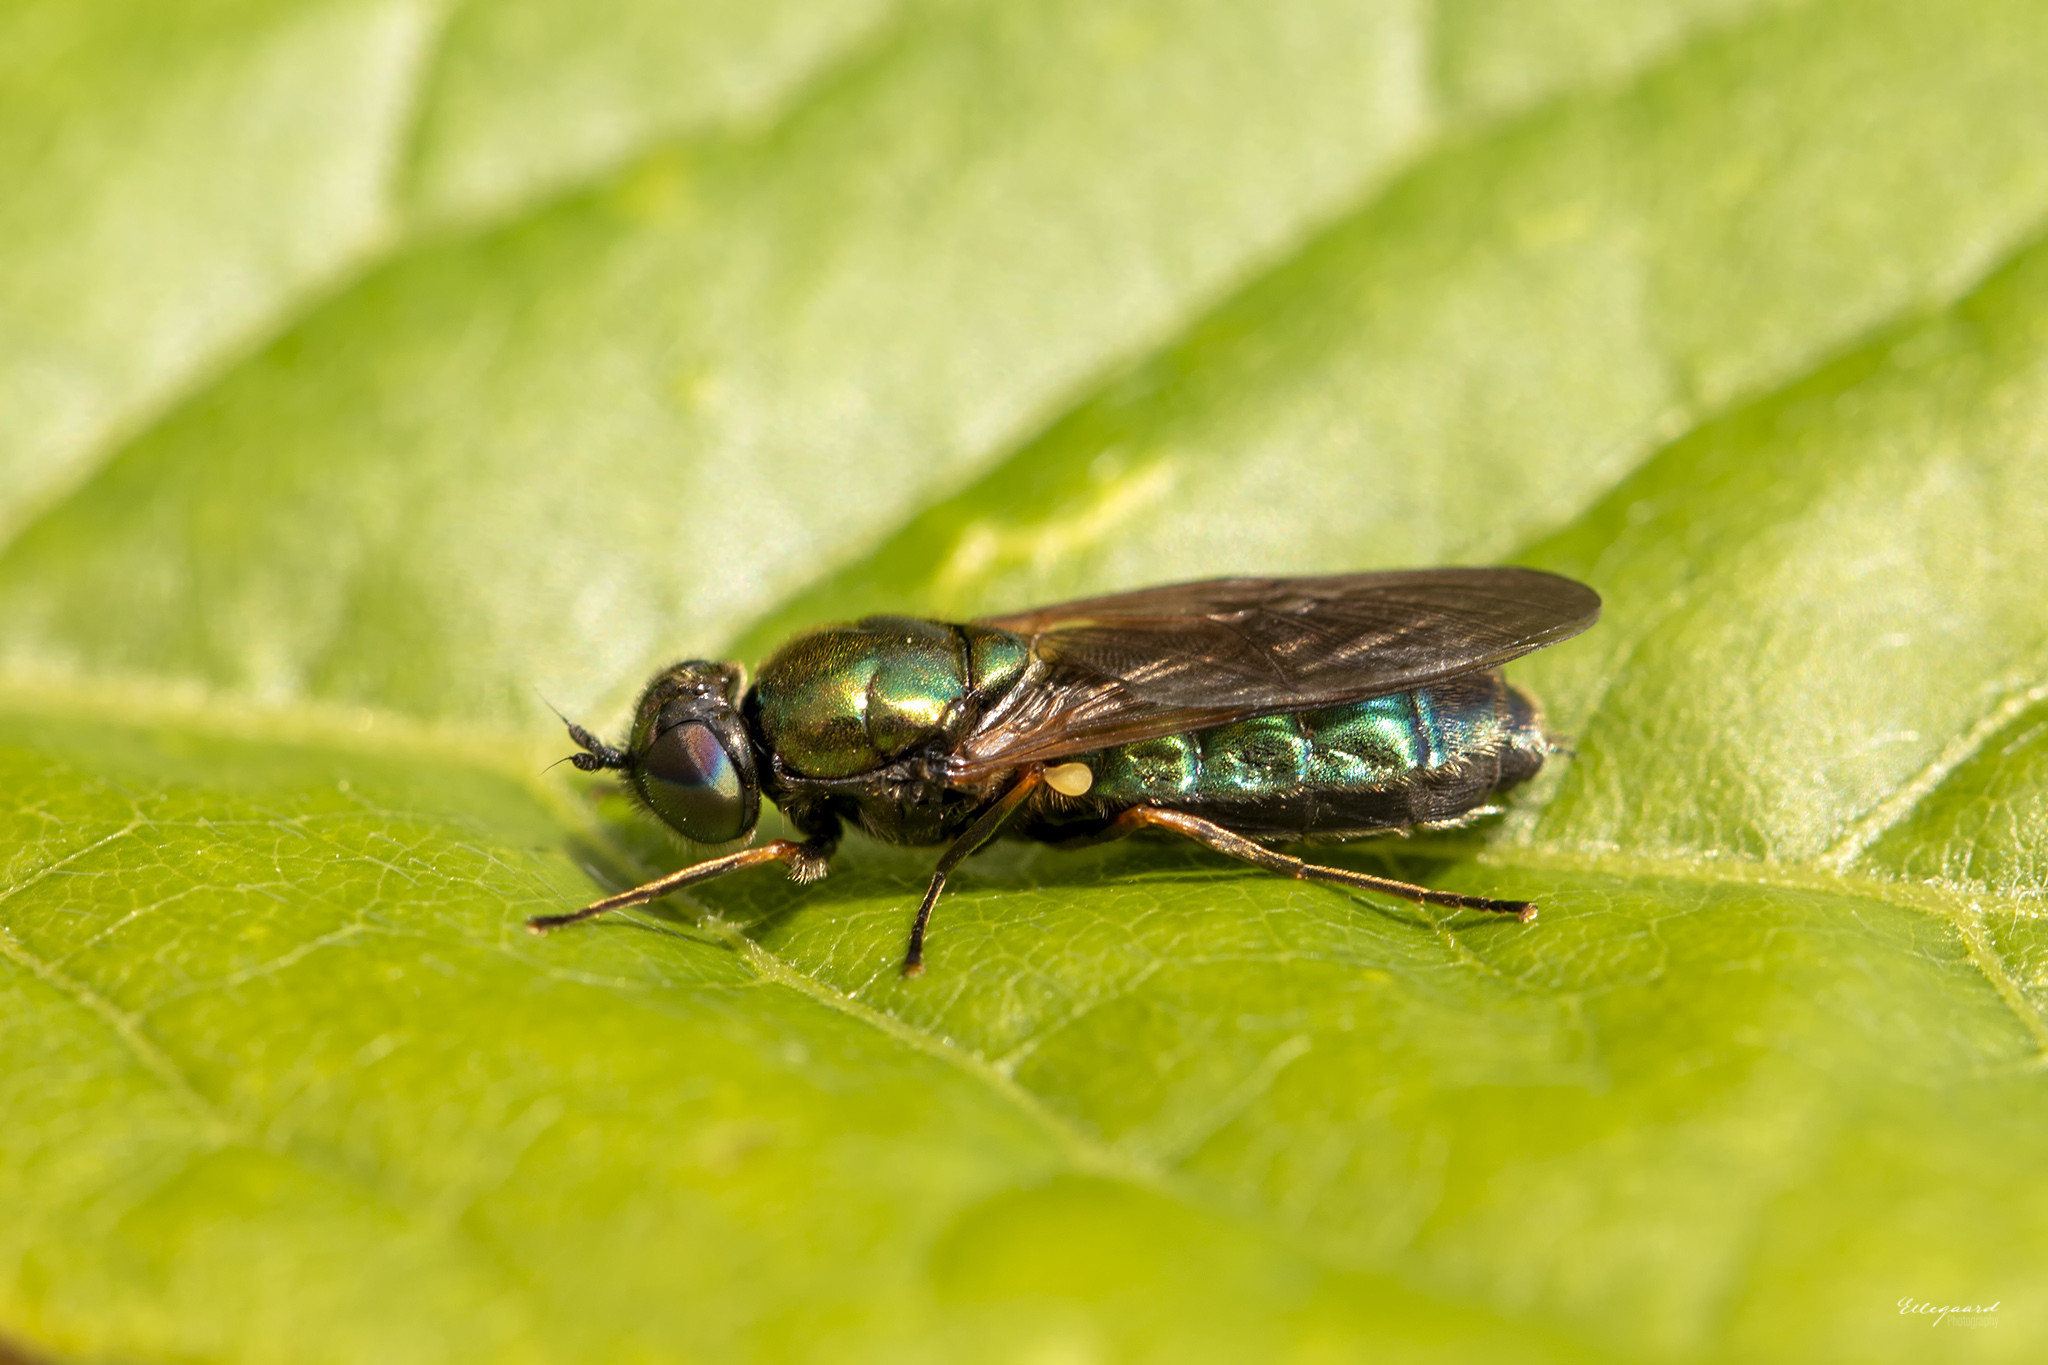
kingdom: Animalia
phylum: Arthropoda
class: Insecta
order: Diptera
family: Stratiomyidae
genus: Chloromyia
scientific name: Chloromyia formosa
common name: Soldier fly
